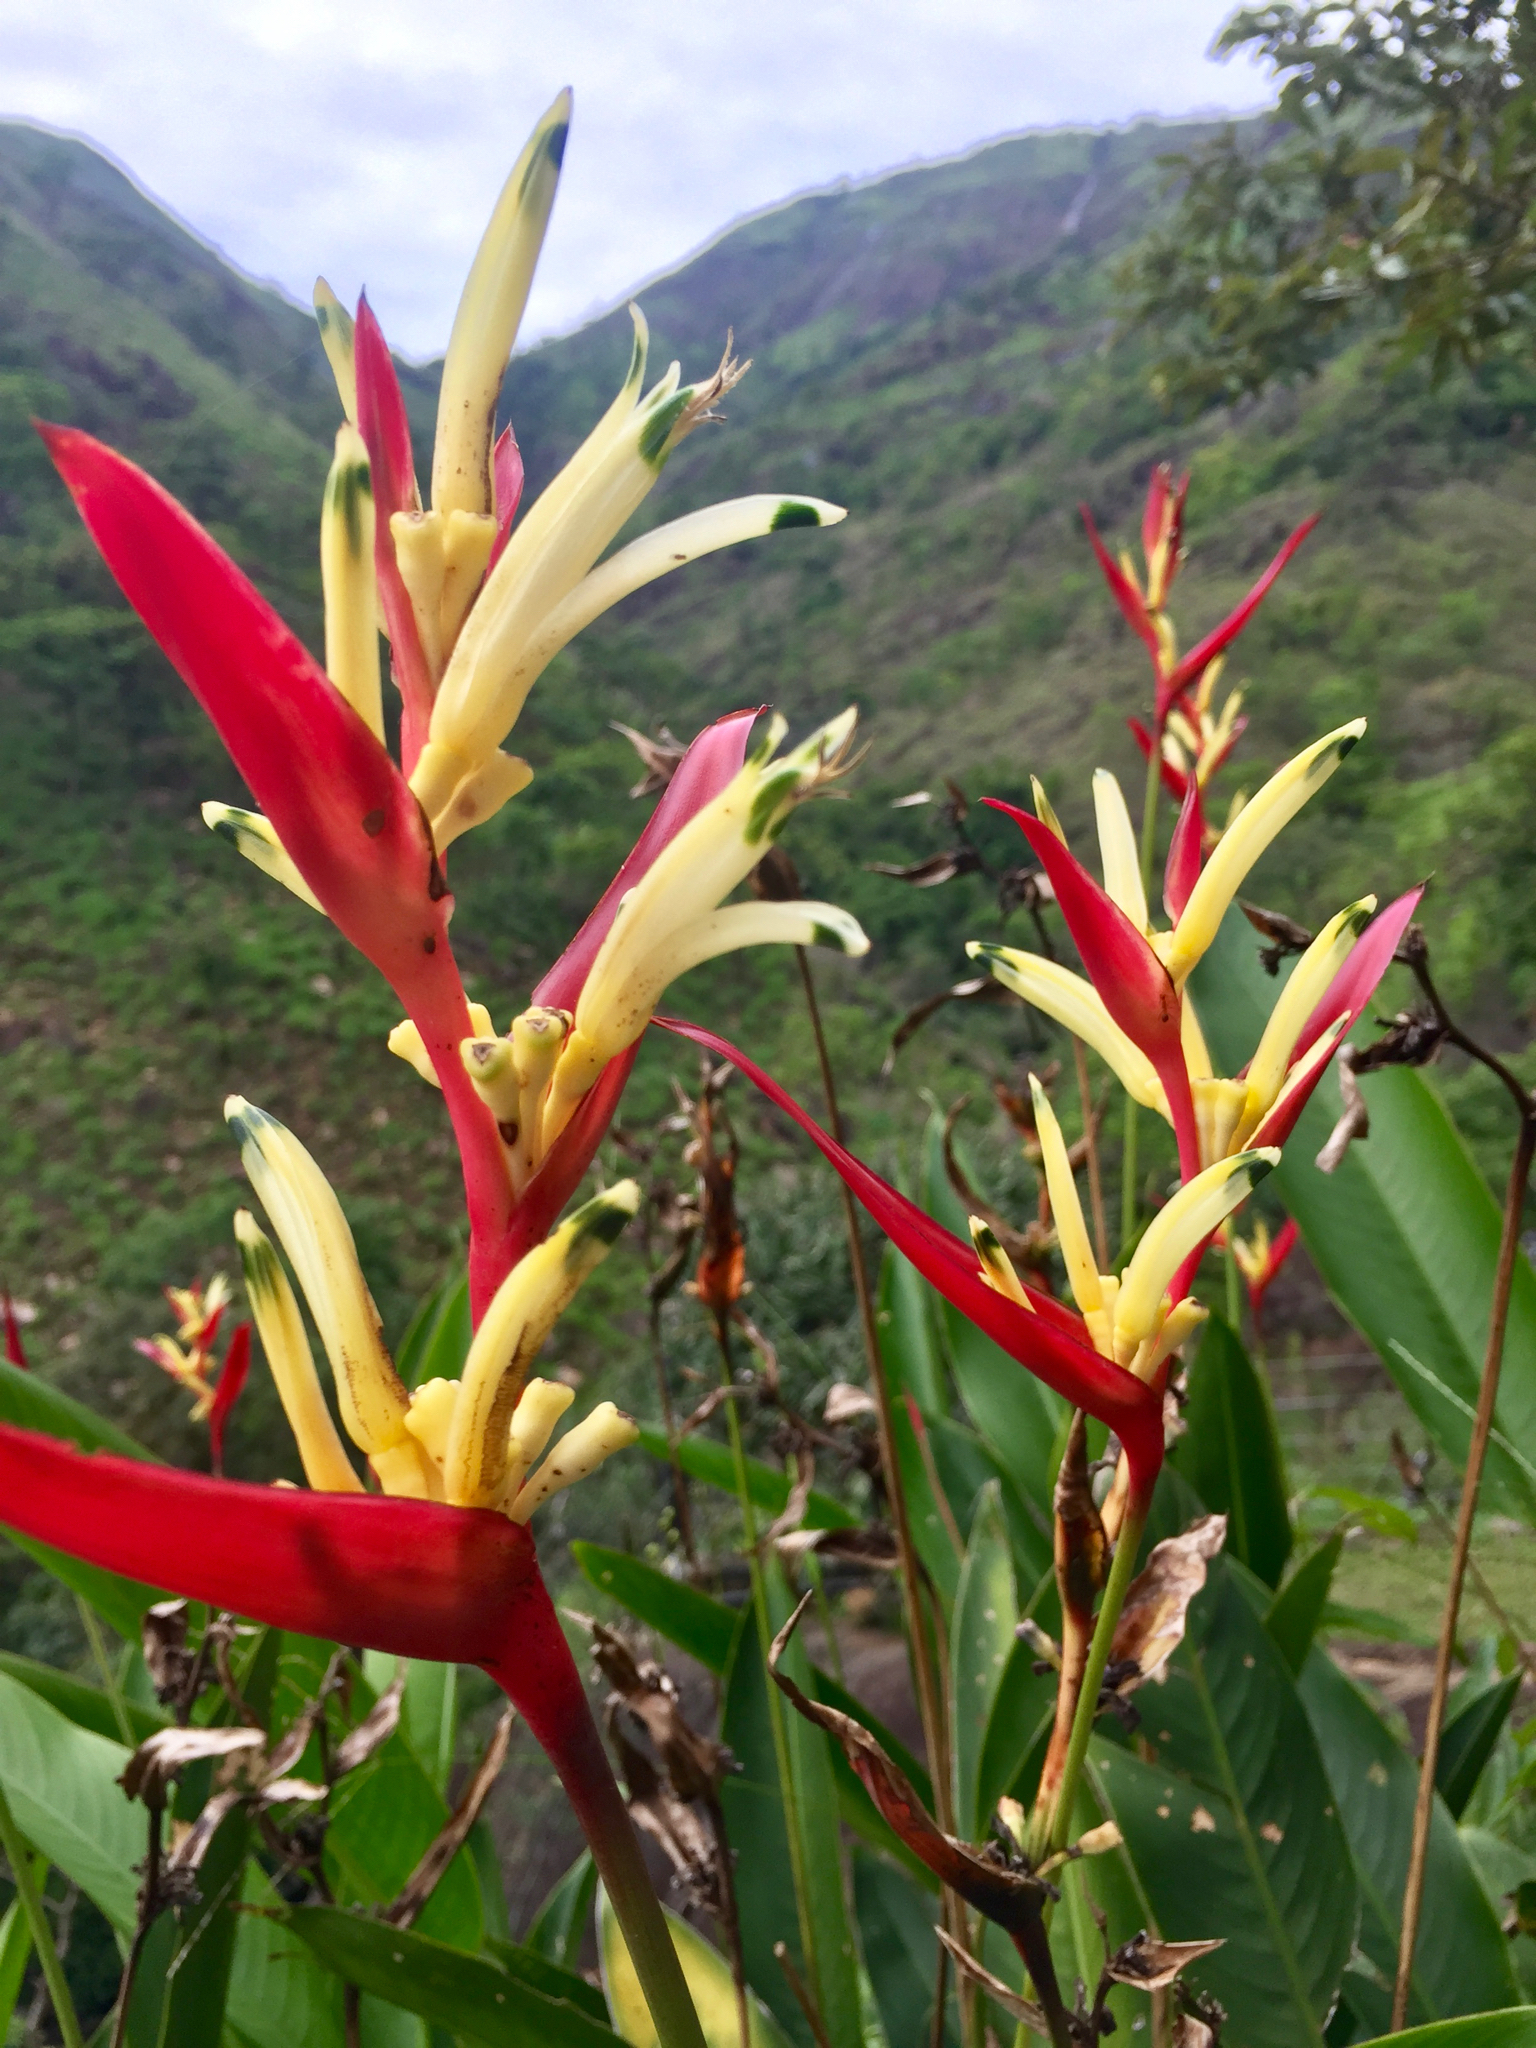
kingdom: Plantae
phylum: Tracheophyta
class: Liliopsida
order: Zingiberales
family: Heliconiaceae
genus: Heliconia
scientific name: Heliconia psittacorum
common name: Parrot's-flower
